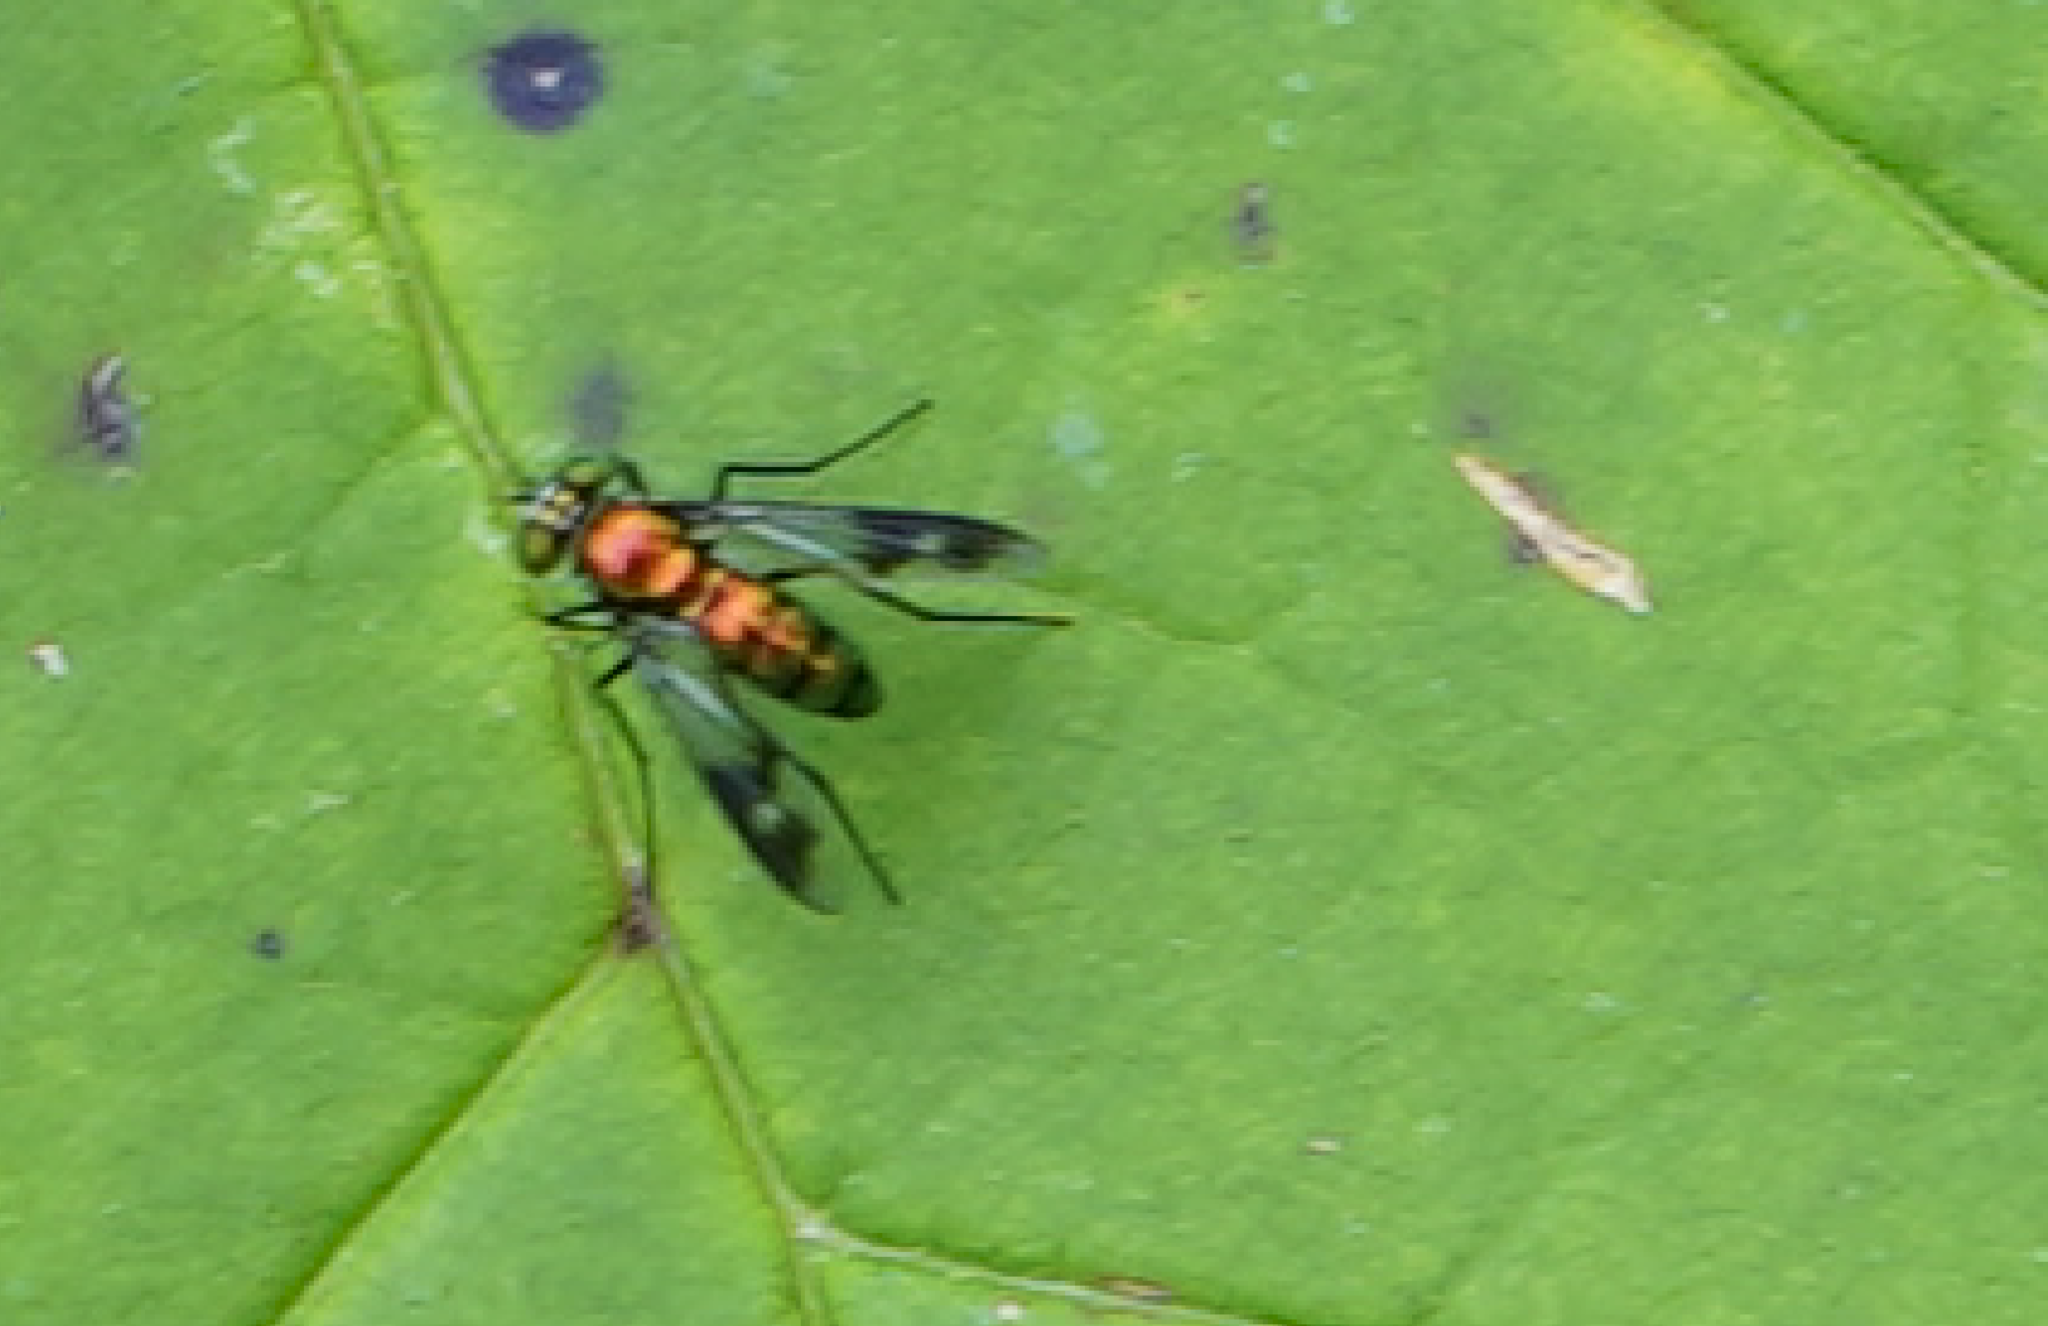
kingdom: Animalia
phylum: Arthropoda
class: Insecta
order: Diptera
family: Dolichopodidae
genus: Condylostylus
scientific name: Condylostylus patibulatus
